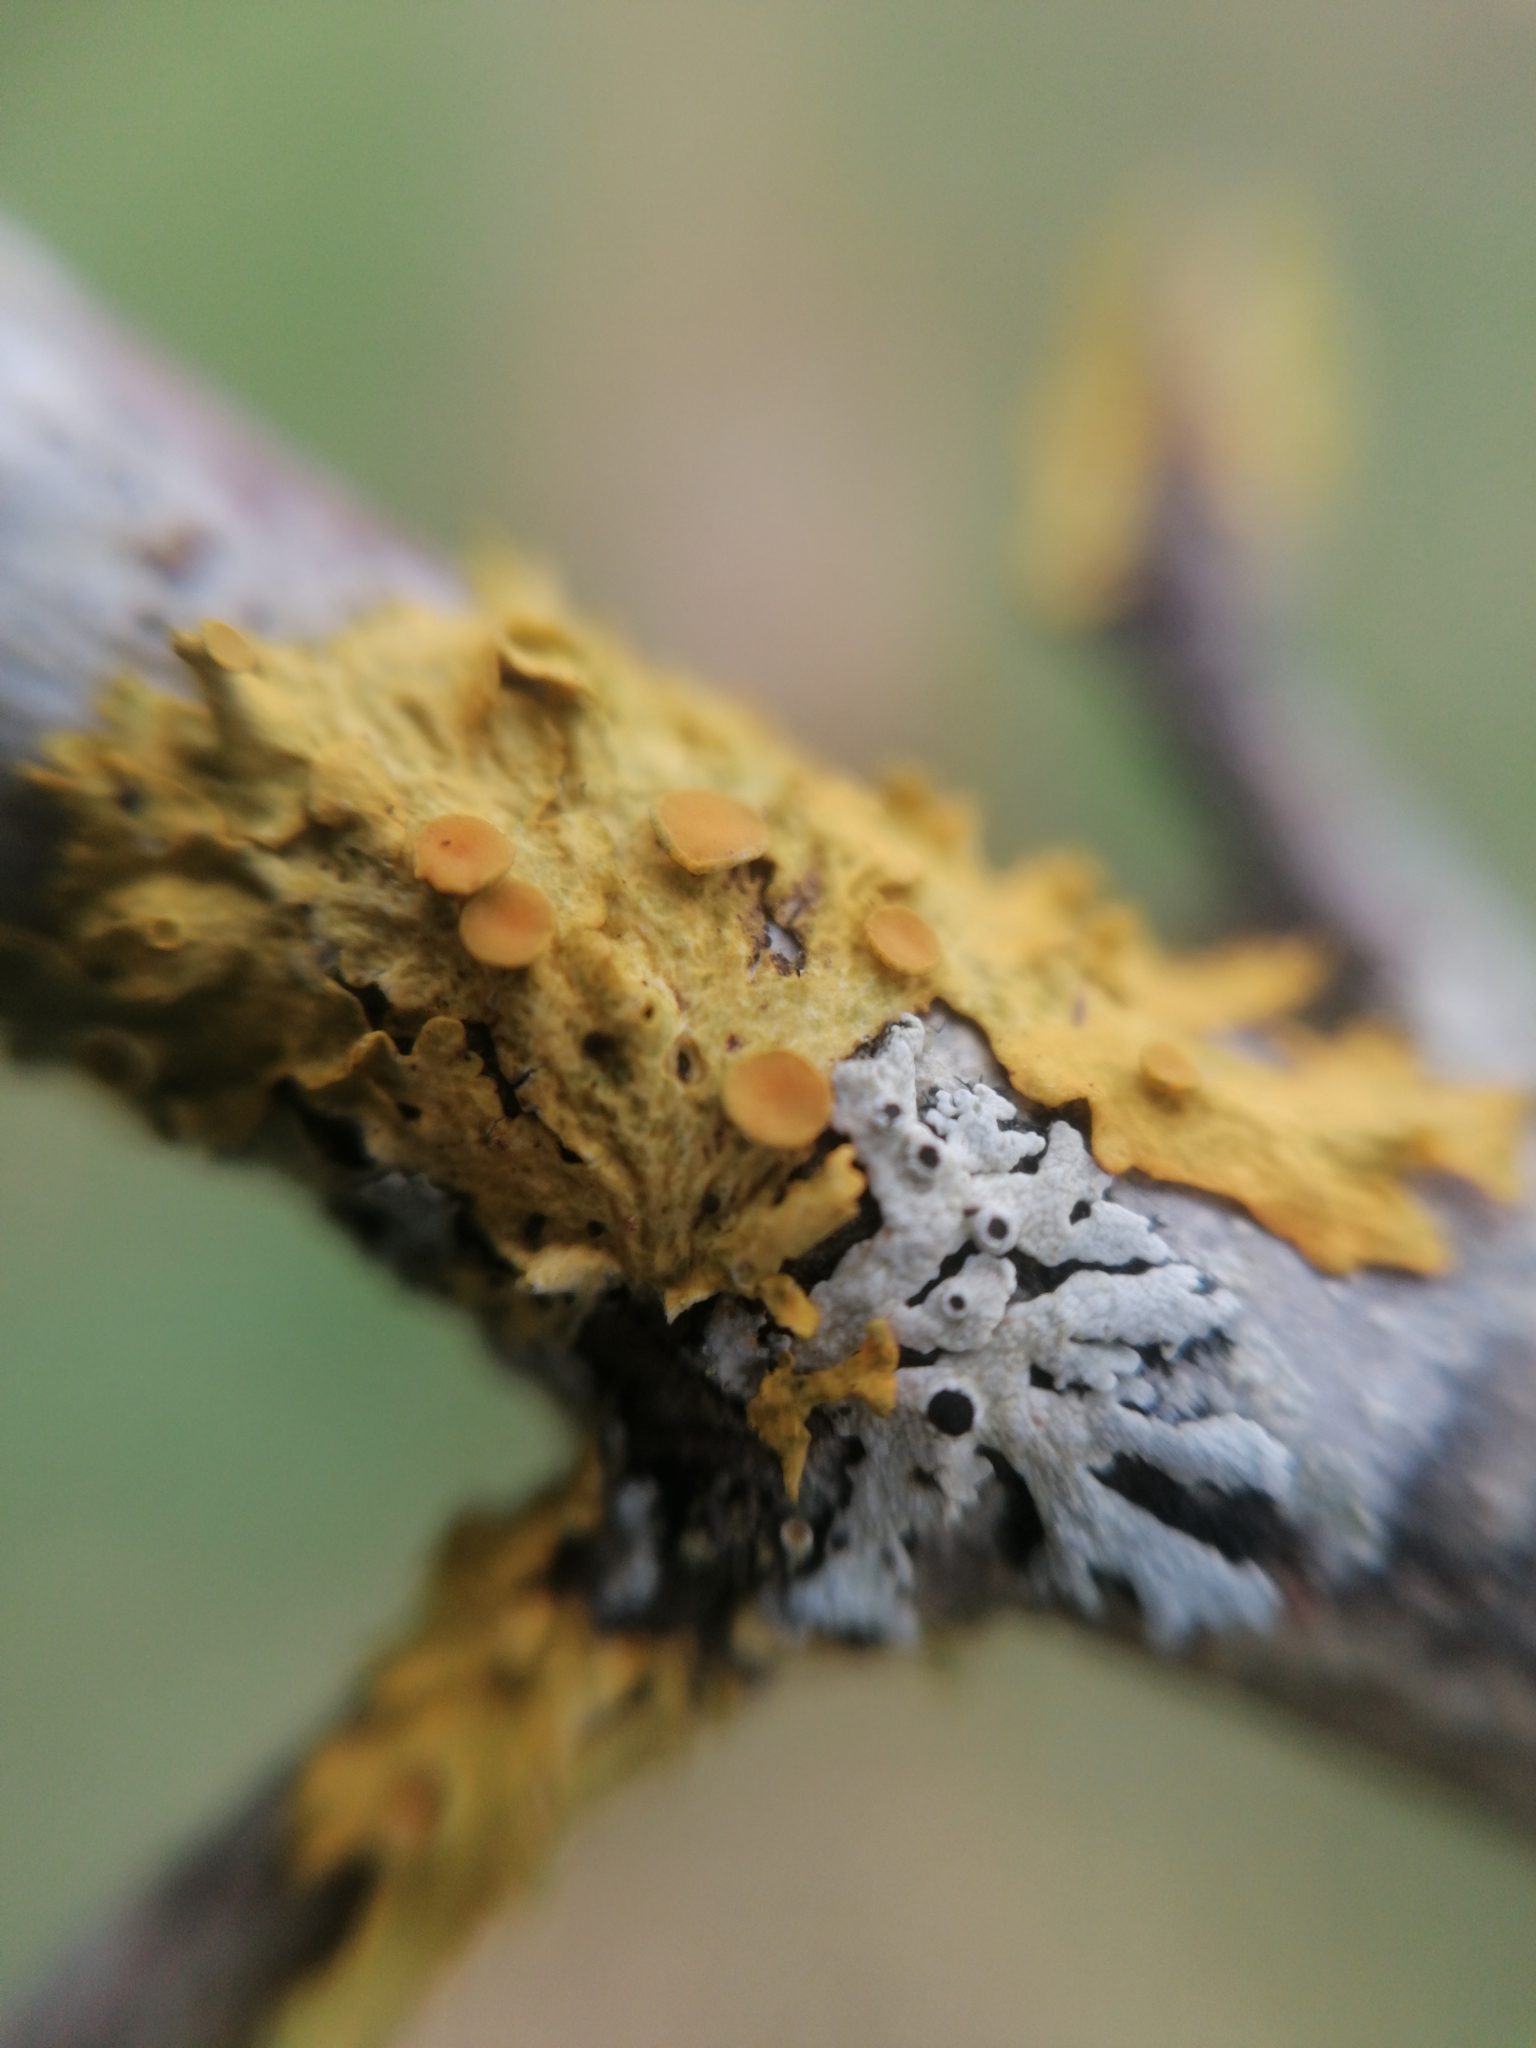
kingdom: Fungi
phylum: Ascomycota
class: Lecanoromycetes
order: Teloschistales
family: Teloschistaceae
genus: Xanthoria
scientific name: Xanthoria parietina
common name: Common orange lichen
